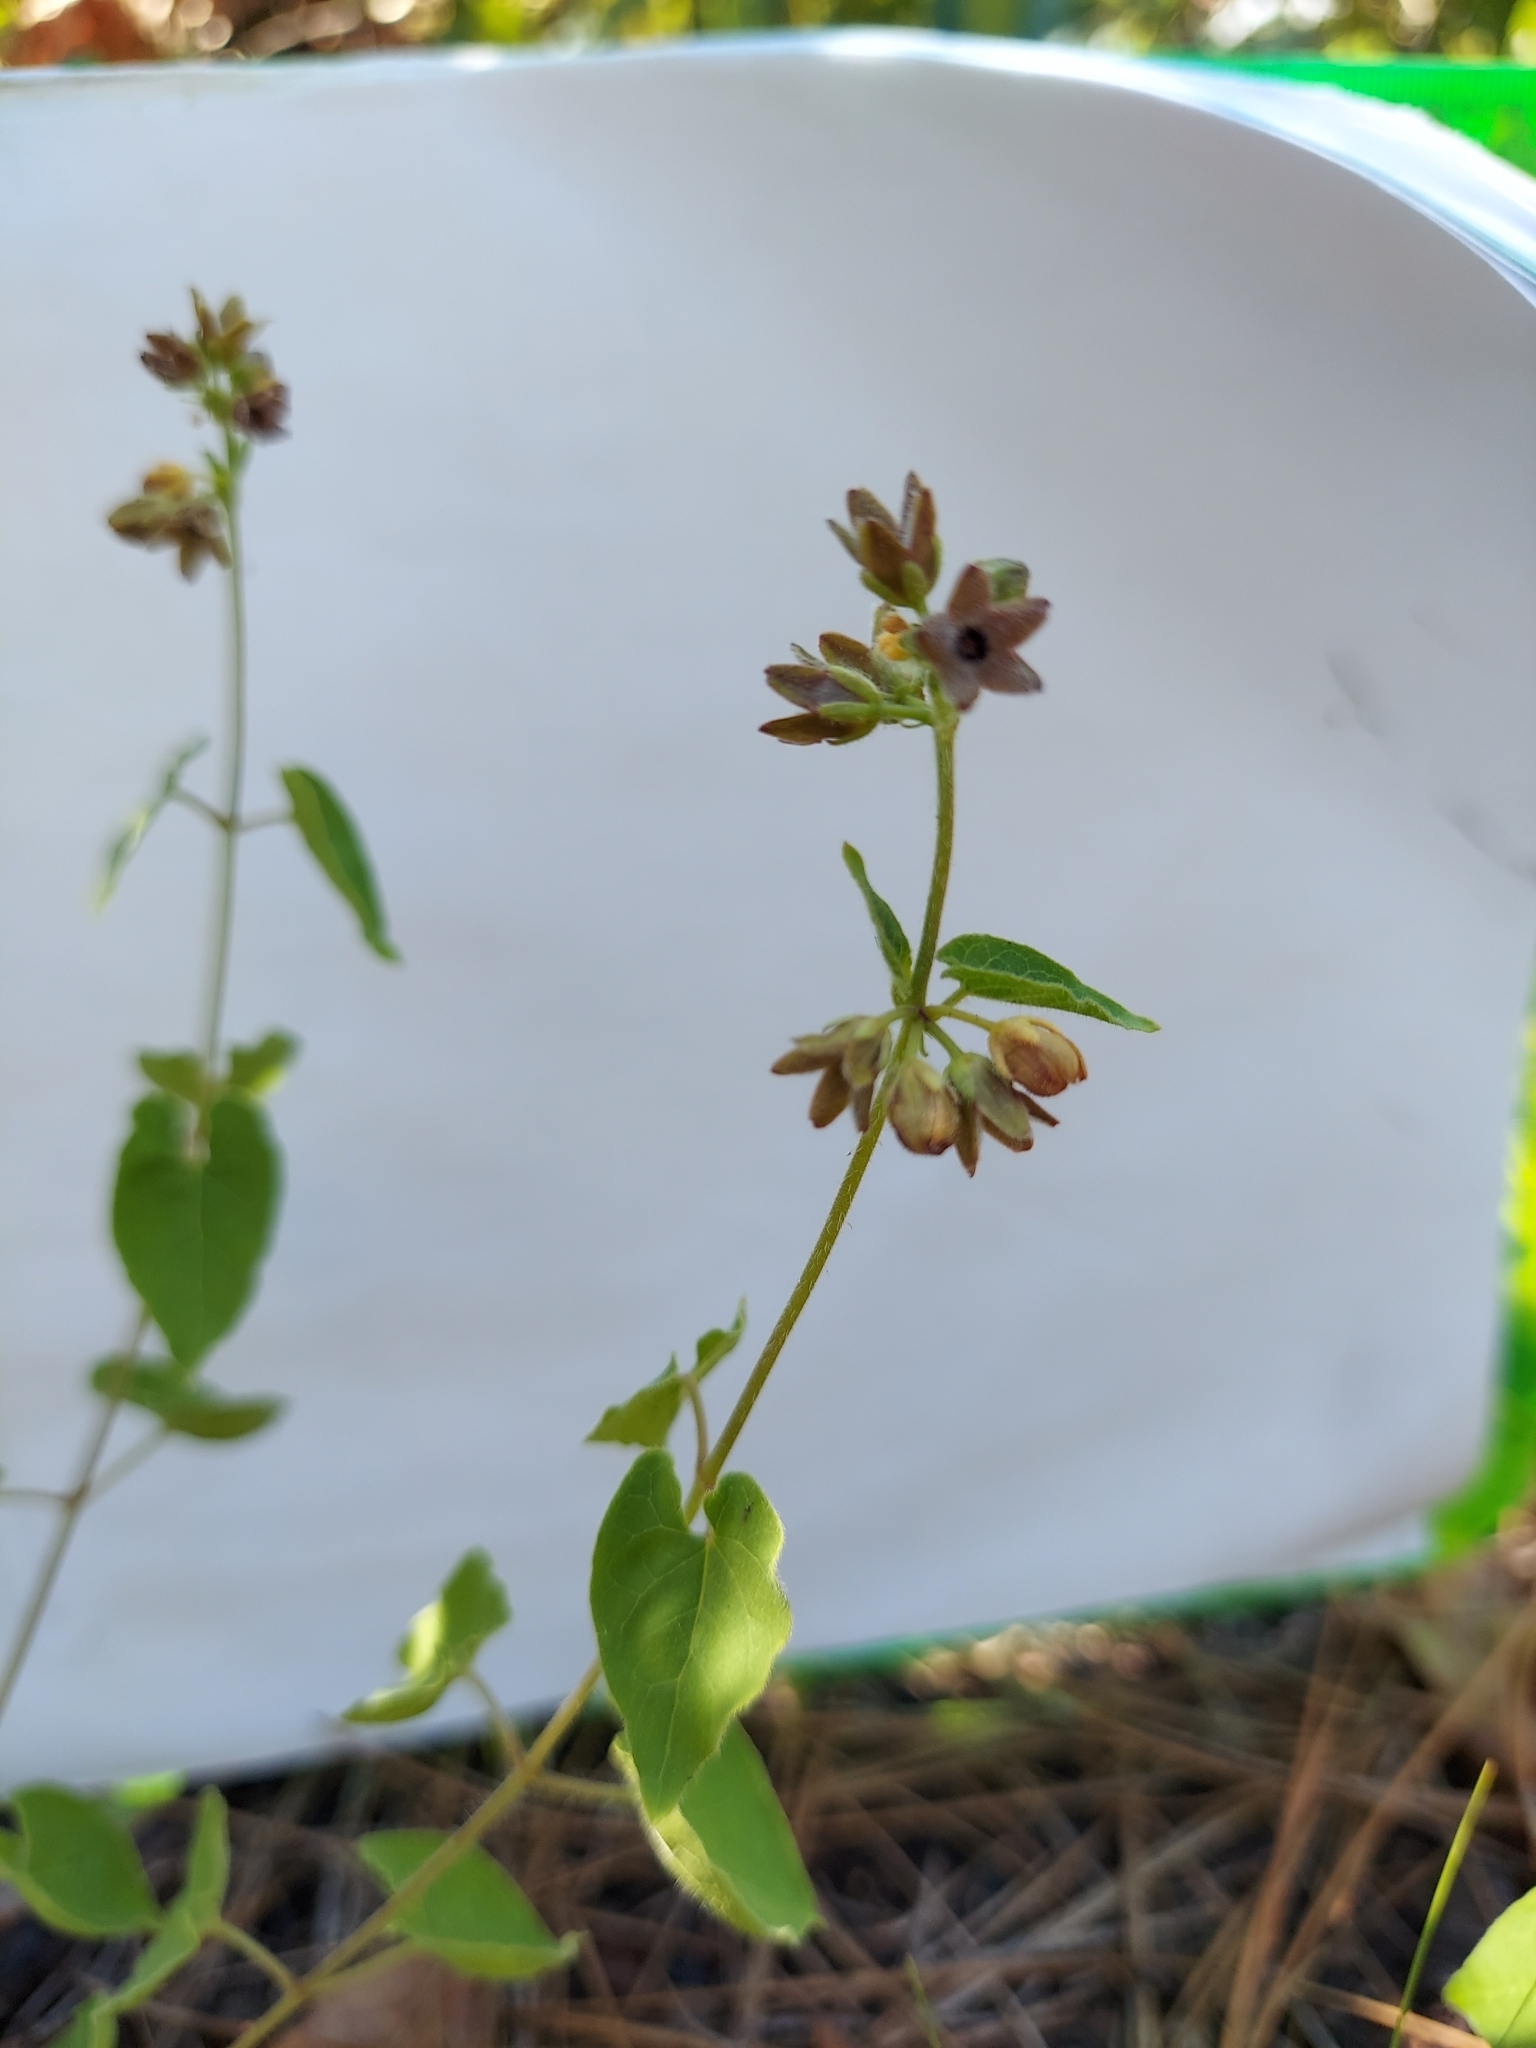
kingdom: Plantae
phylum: Tracheophyta
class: Magnoliopsida
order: Gentianales
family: Apocynaceae
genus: Chthamalia
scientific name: Chthamalia pubiflora
